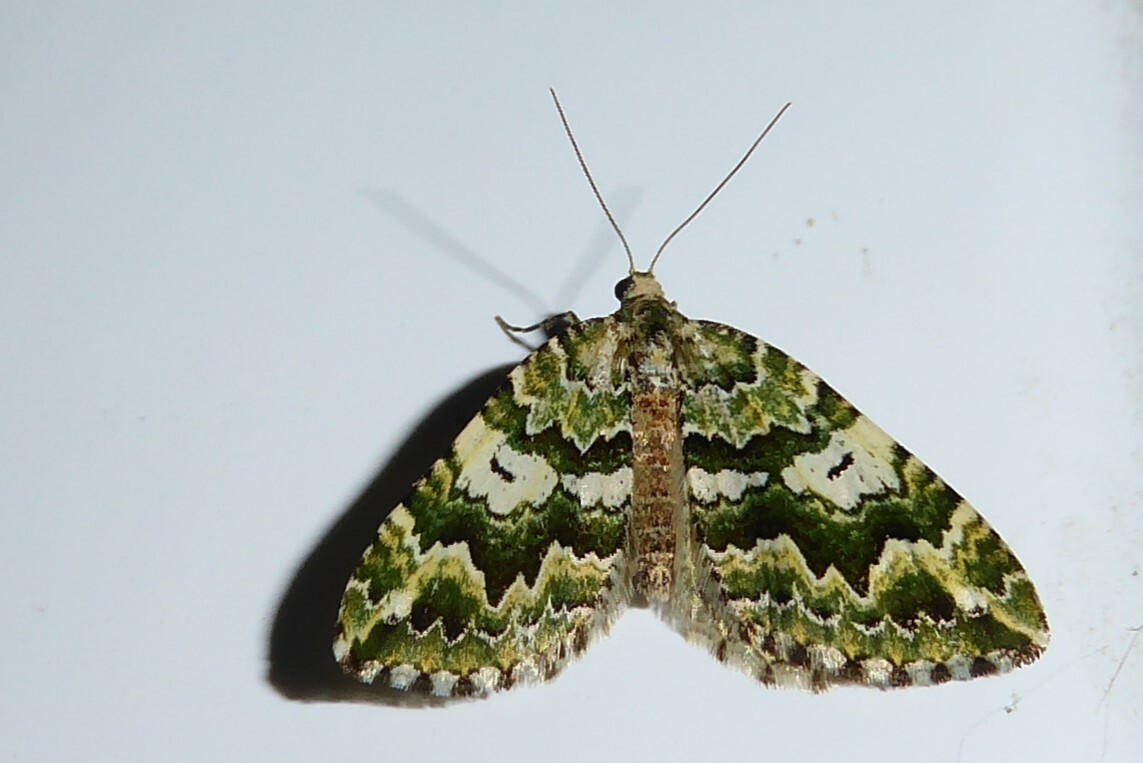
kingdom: Animalia
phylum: Arthropoda
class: Insecta
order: Lepidoptera
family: Geometridae
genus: Asaphodes
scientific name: Asaphodes beata
